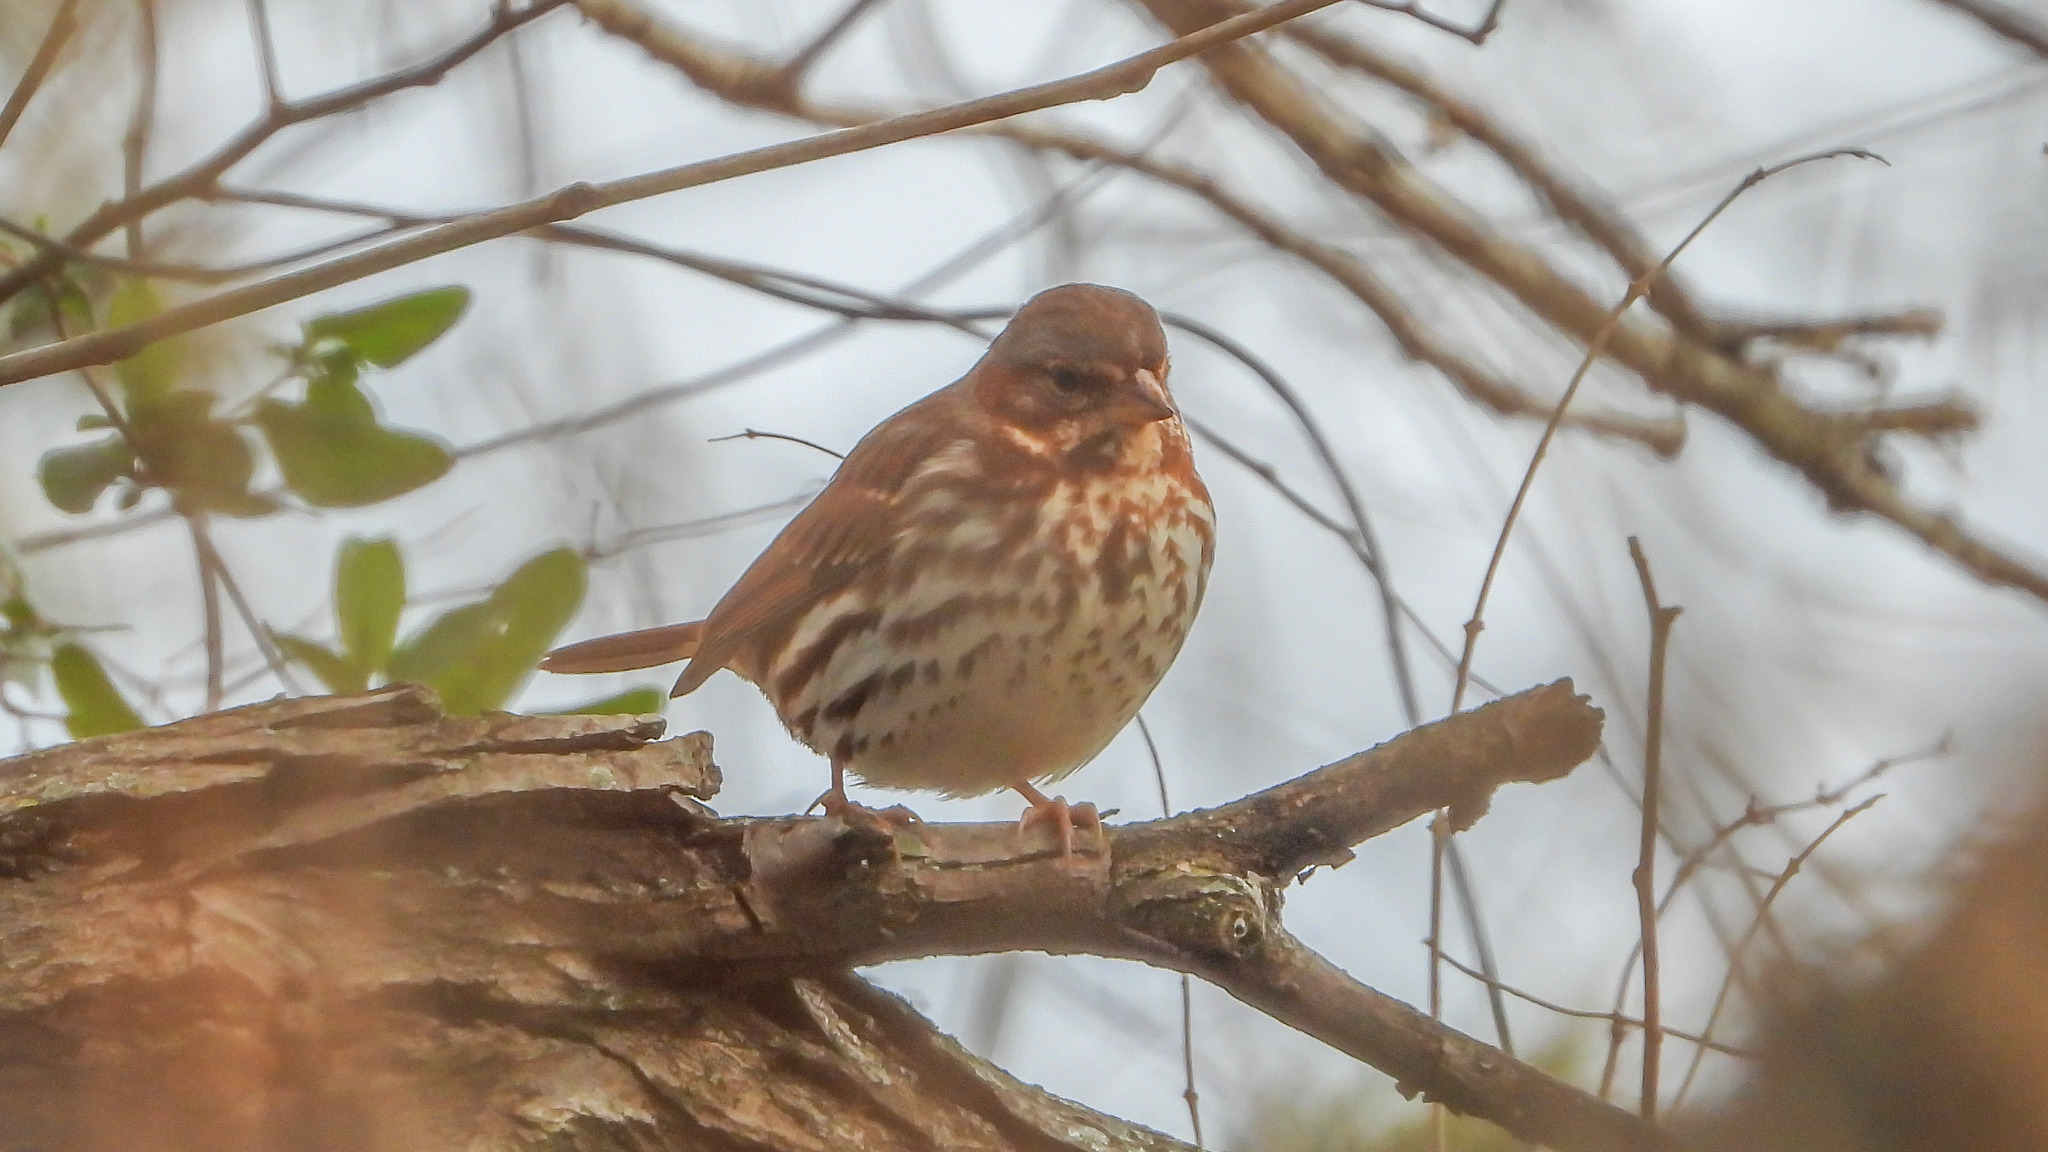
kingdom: Animalia
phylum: Chordata
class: Aves
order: Passeriformes
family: Passerellidae
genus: Passerella
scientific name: Passerella iliaca
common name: Fox sparrow
